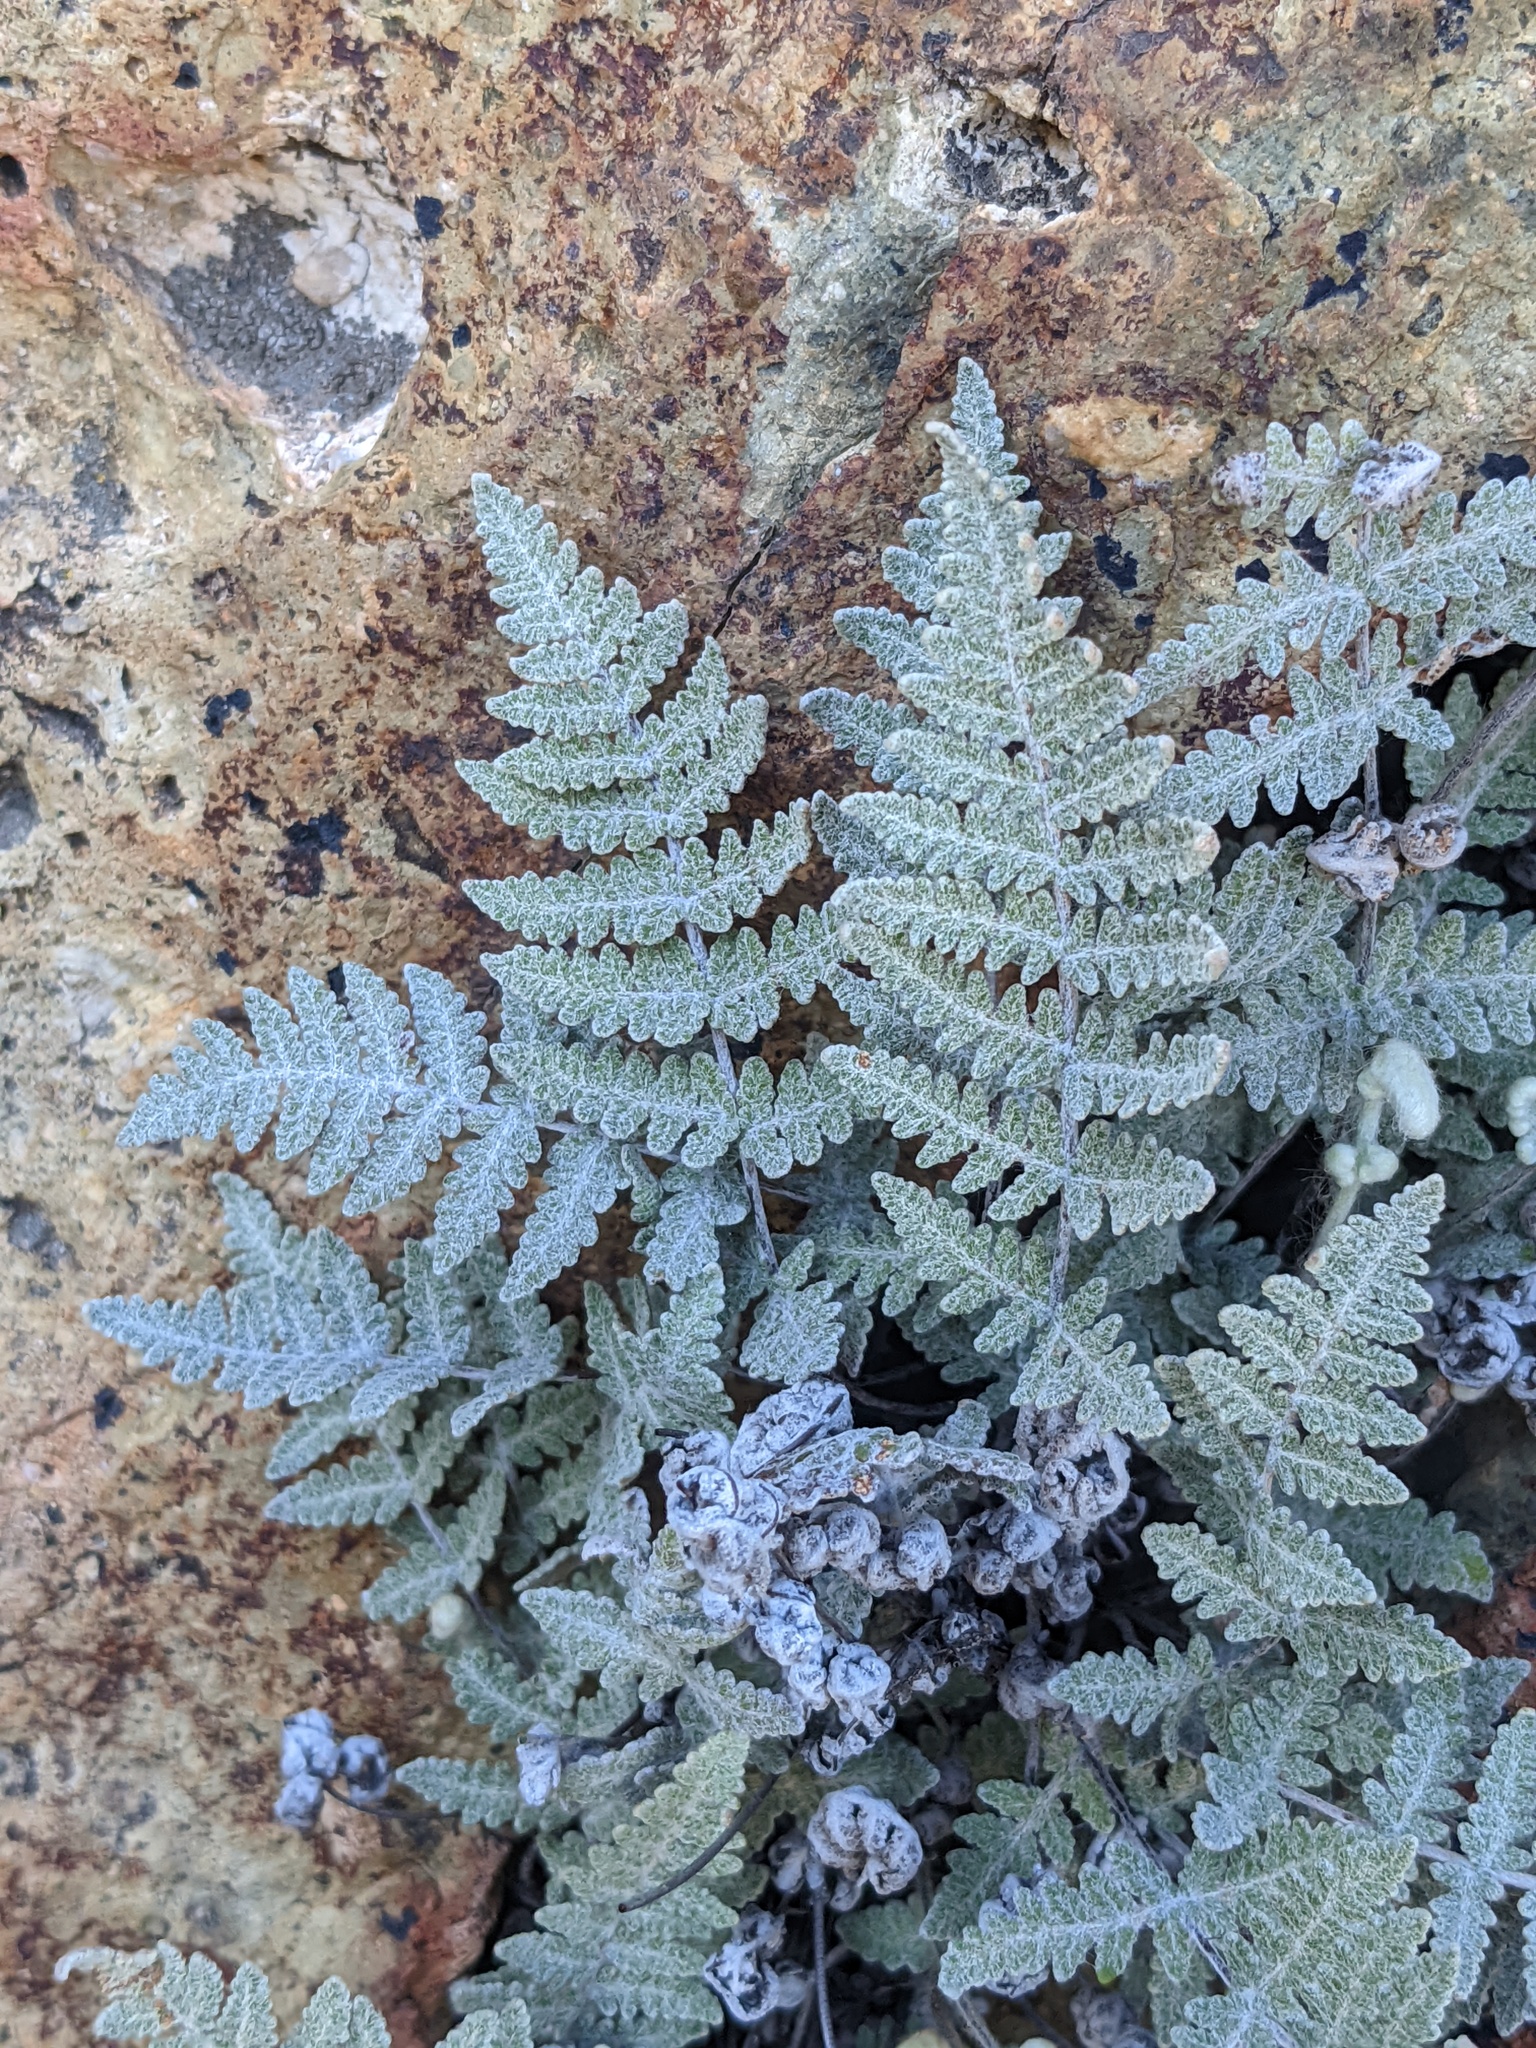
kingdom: Plantae
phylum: Tracheophyta
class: Polypodiopsida
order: Polypodiales
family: Pteridaceae
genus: Myriopteris
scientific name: Myriopteris newberryi
